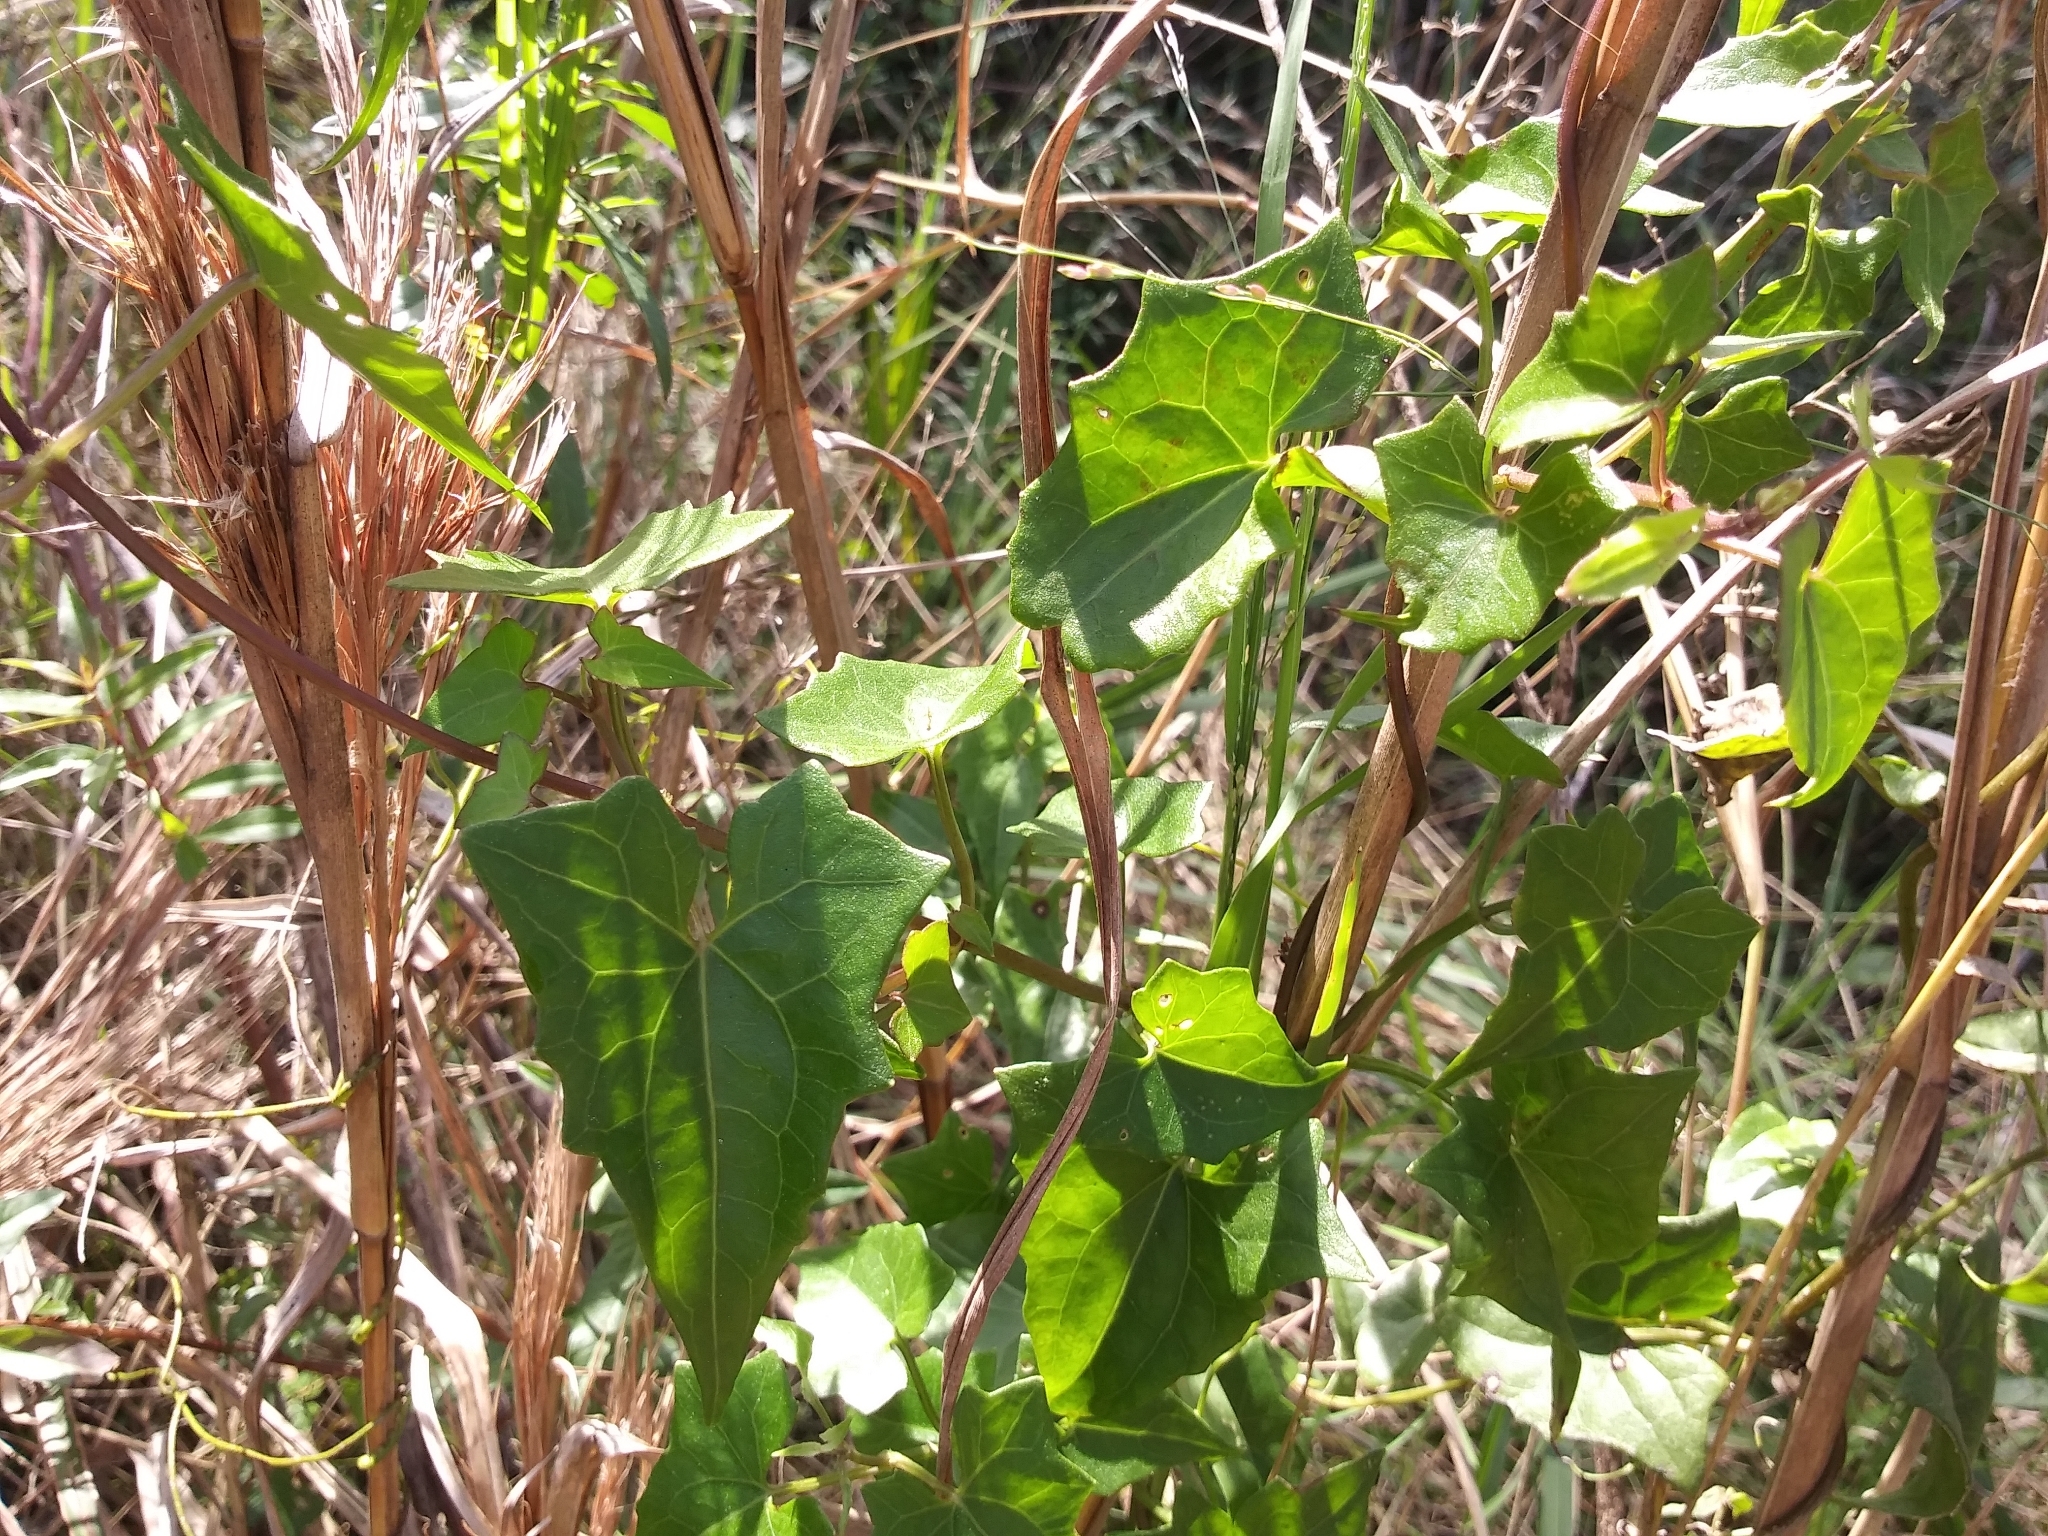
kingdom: Plantae
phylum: Tracheophyta
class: Magnoliopsida
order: Asterales
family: Asteraceae
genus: Mikania
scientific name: Mikania scandens
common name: Climbing hempvine
